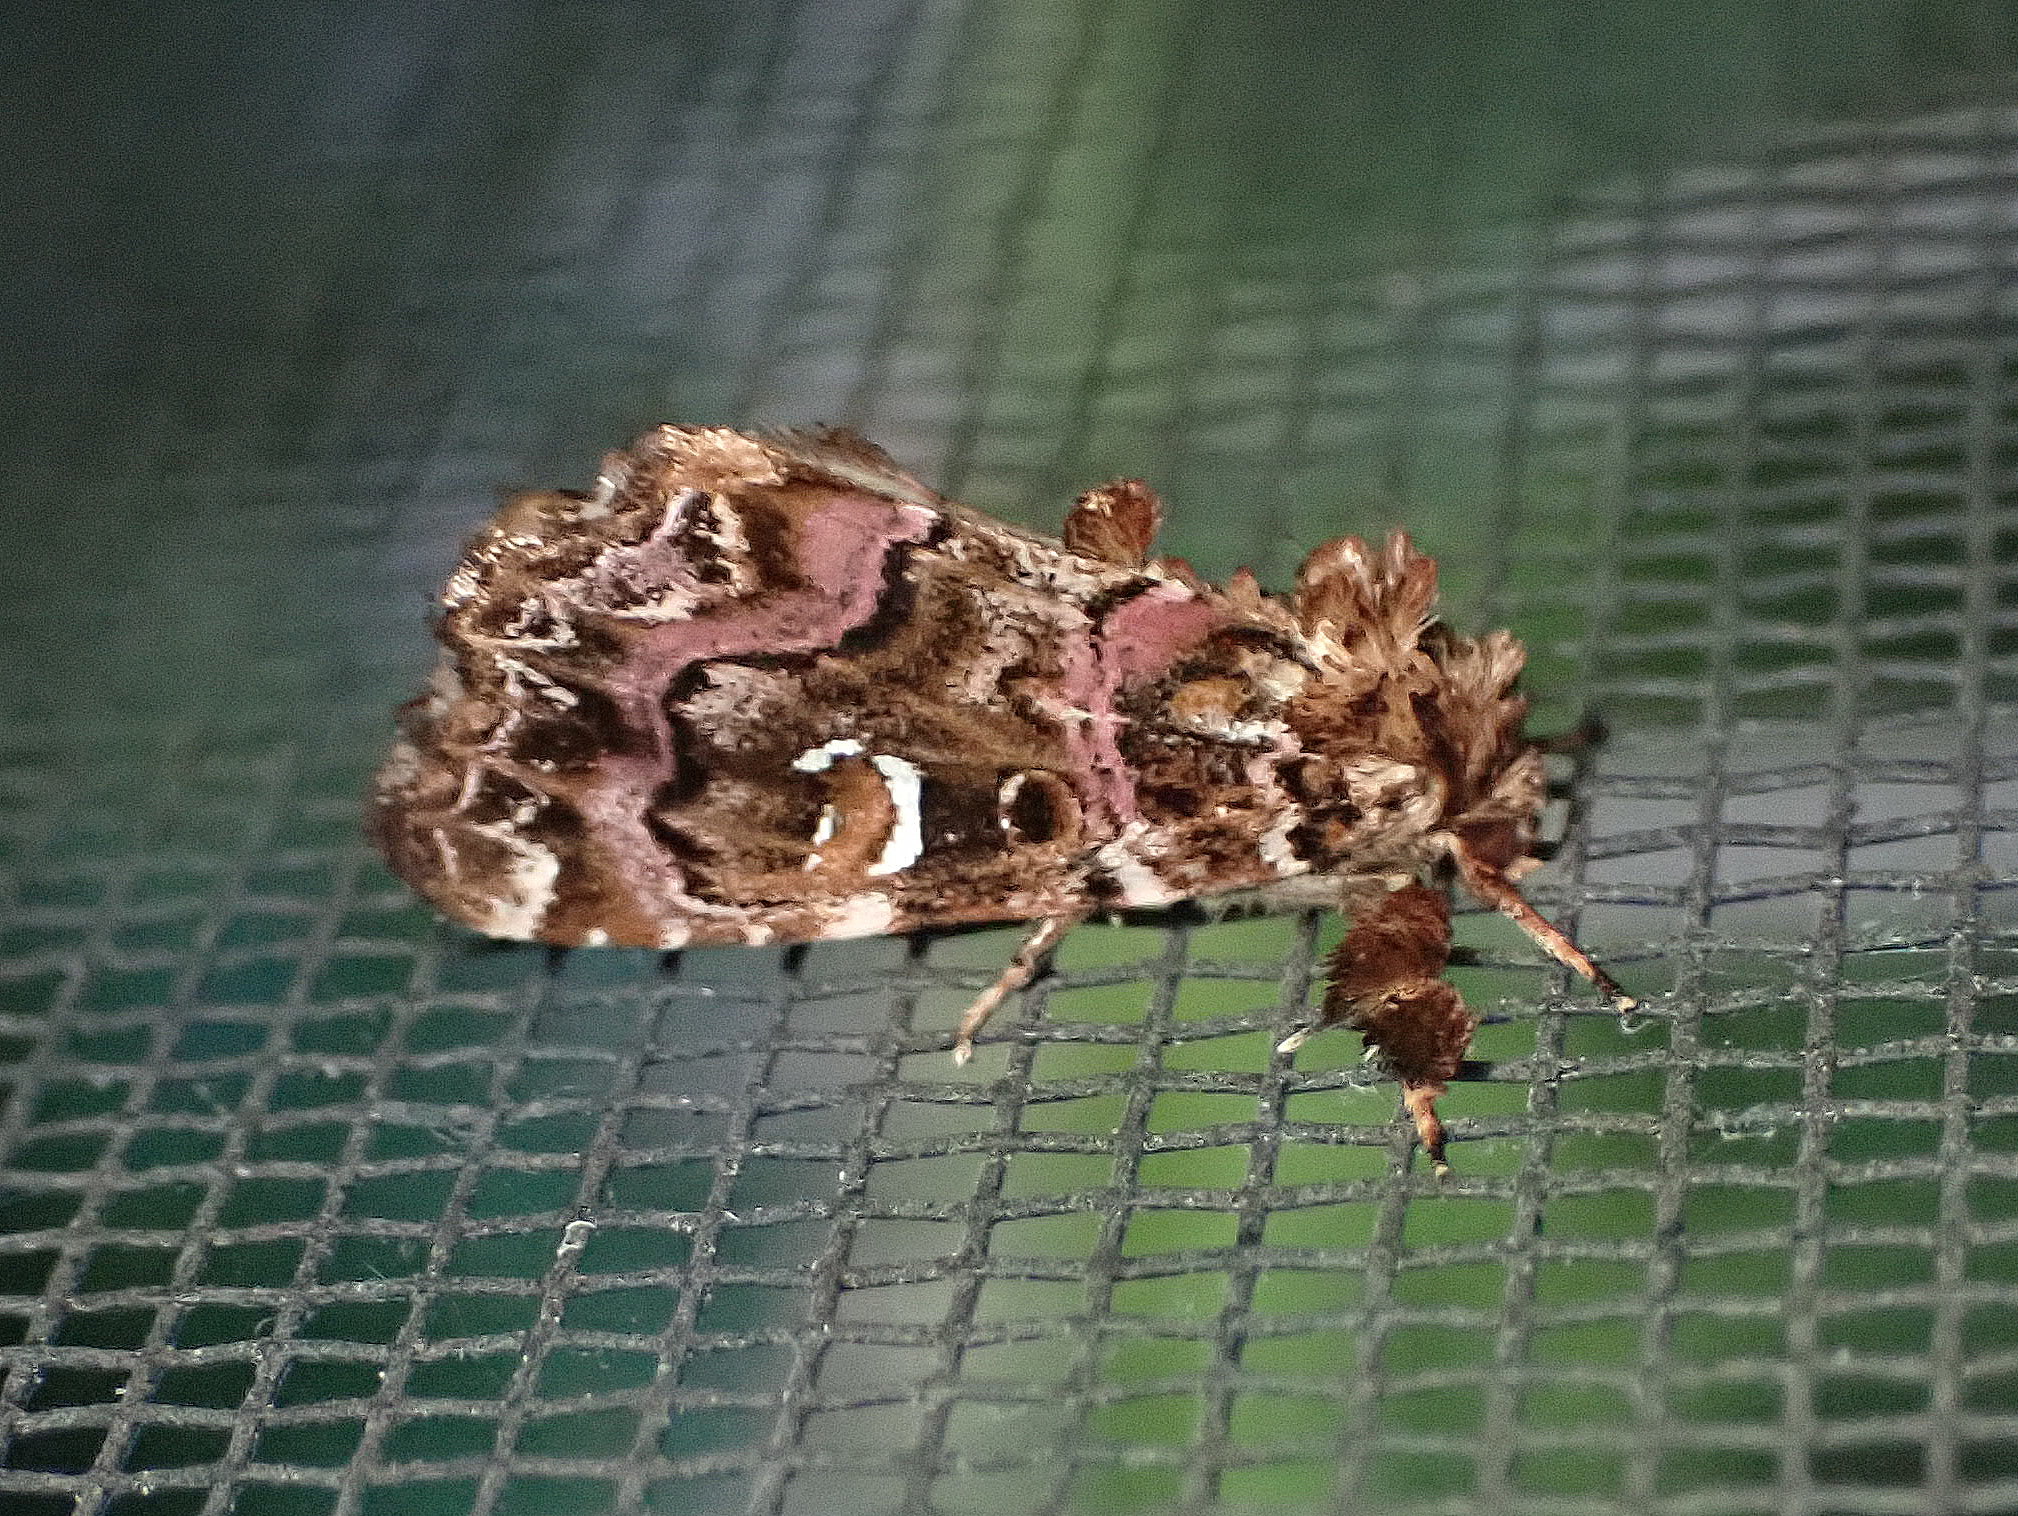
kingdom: Animalia
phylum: Arthropoda
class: Insecta
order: Lepidoptera
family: Noctuidae
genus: Callopistria
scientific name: Callopistria mollissima
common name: Pink-shaded fern moth
